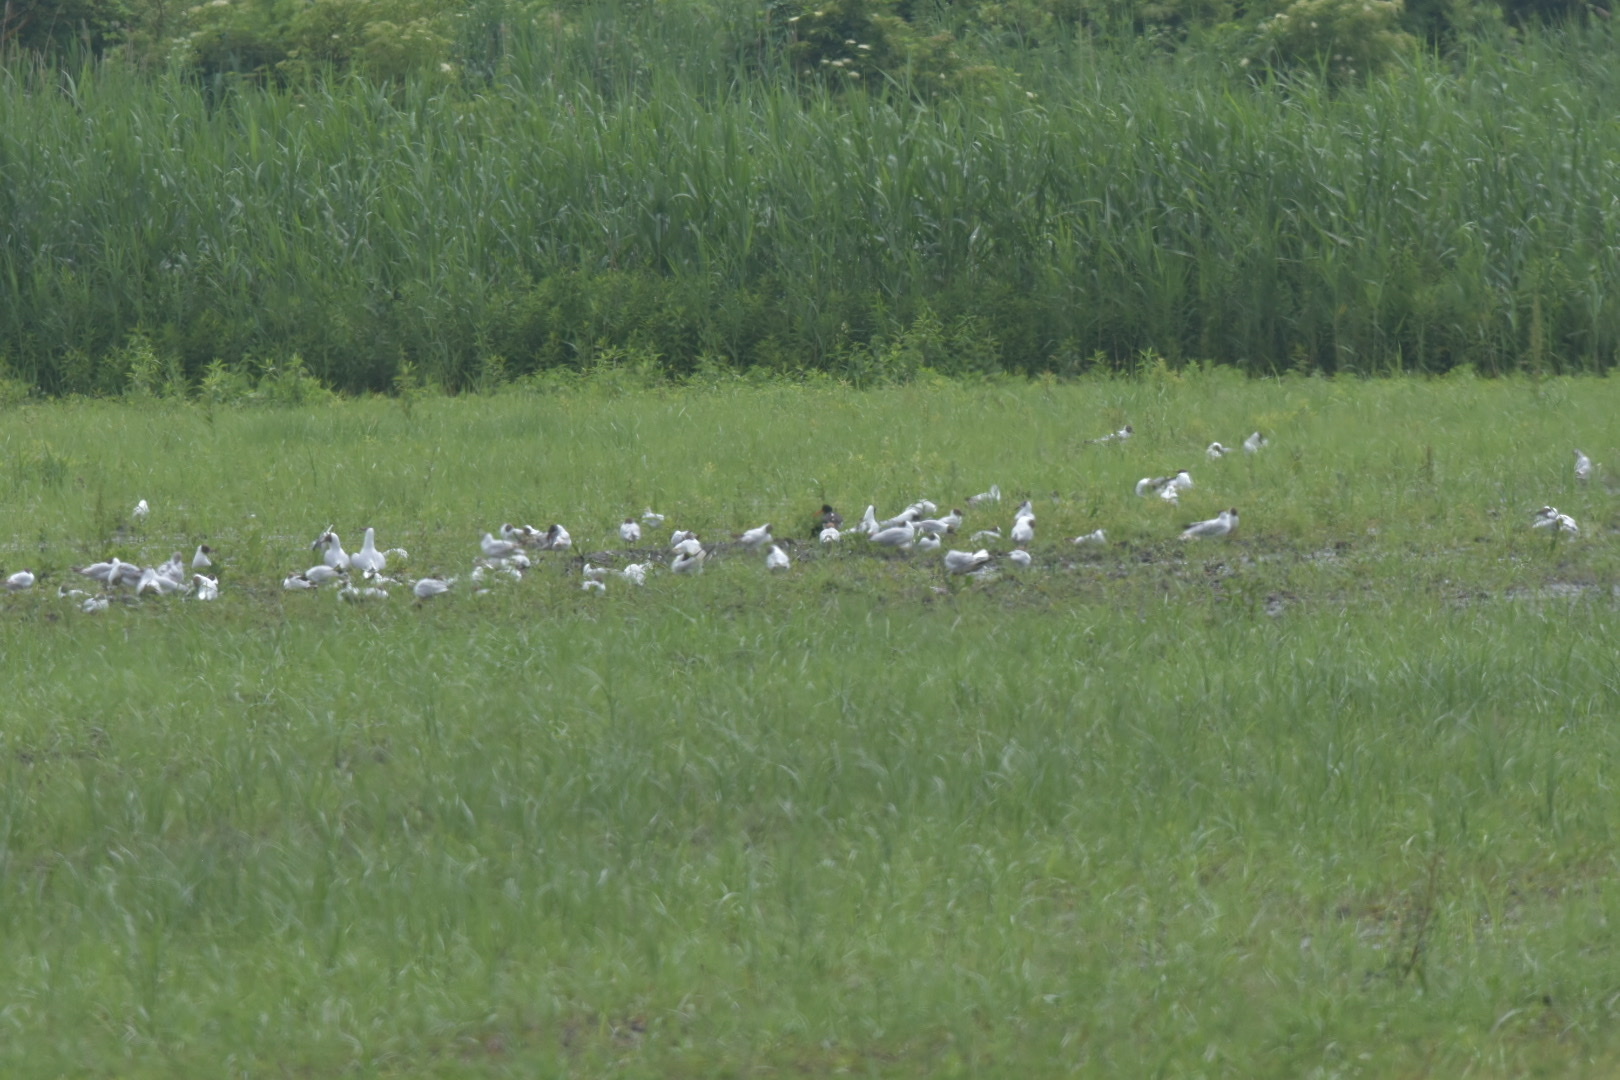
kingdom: Animalia
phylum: Chordata
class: Aves
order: Charadriiformes
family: Haematopodidae
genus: Haematopus
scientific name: Haematopus ostralegus
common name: Eurasian oystercatcher
